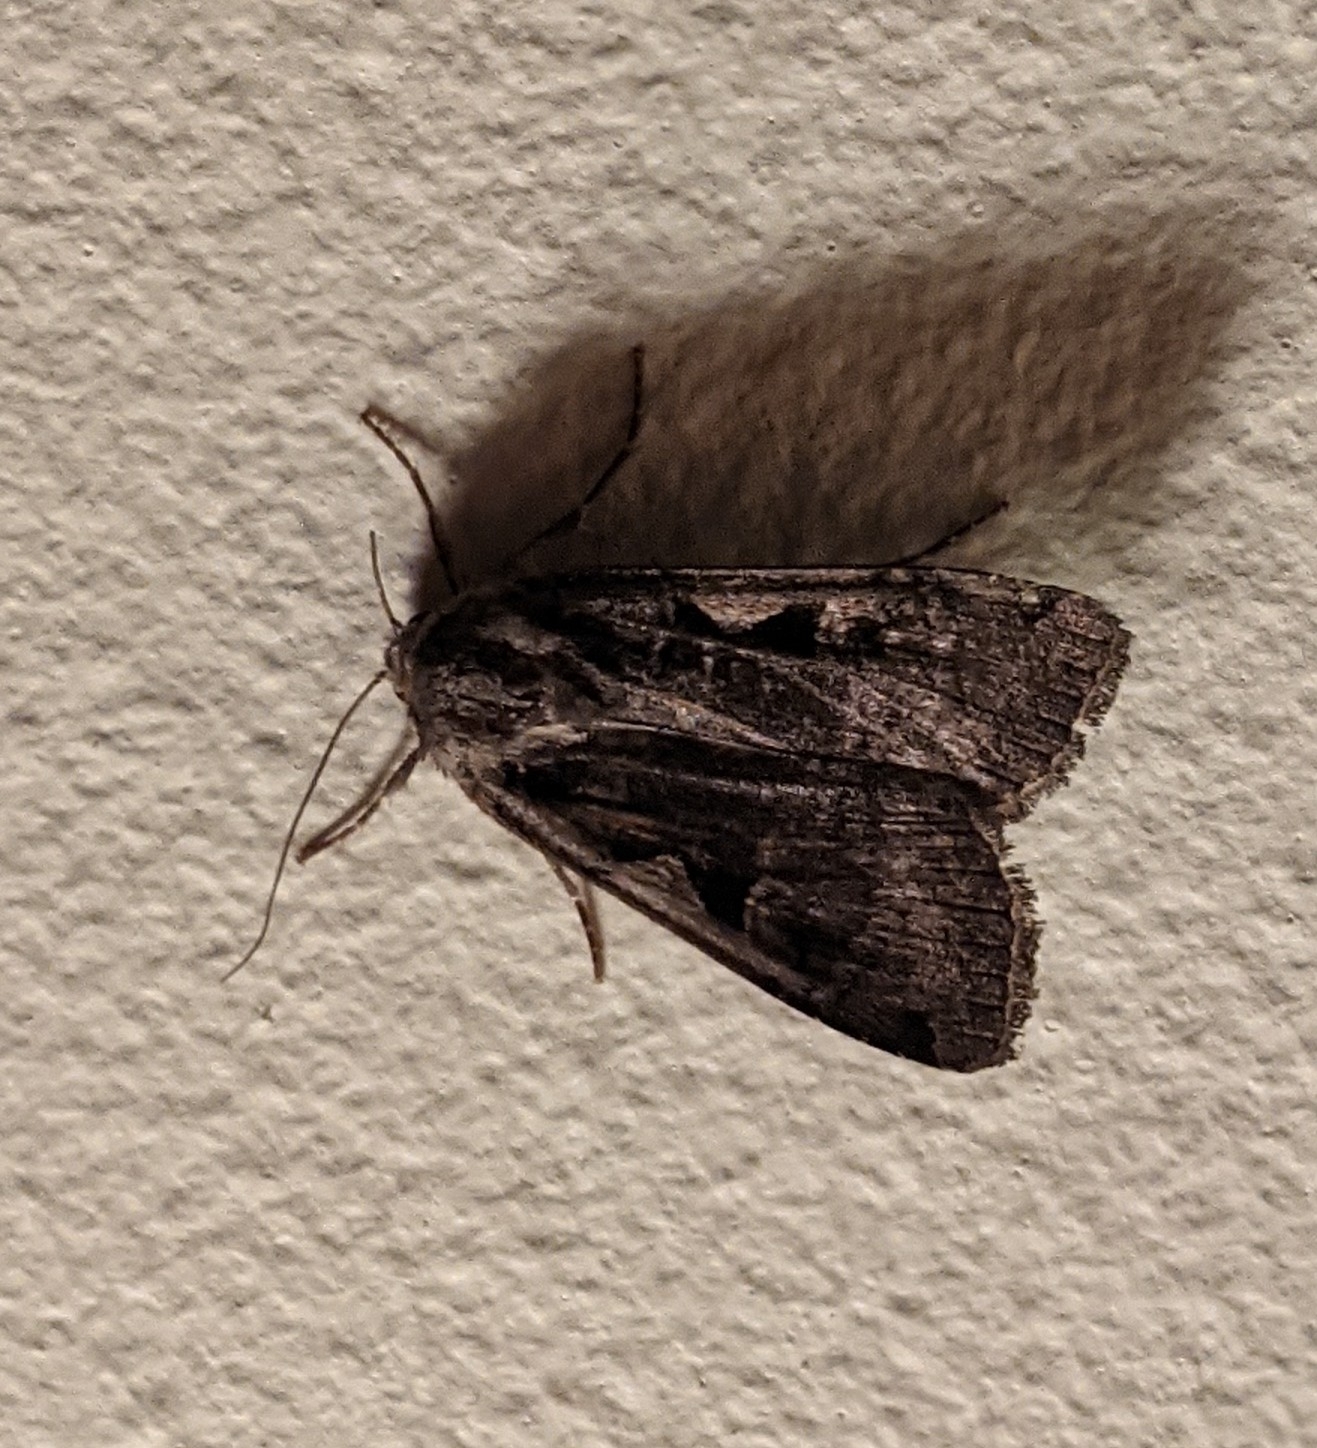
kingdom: Animalia
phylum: Arthropoda
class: Insecta
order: Lepidoptera
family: Noctuidae
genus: Xestia
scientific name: Xestia c-nigrum
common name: Setaceous hebrew character
